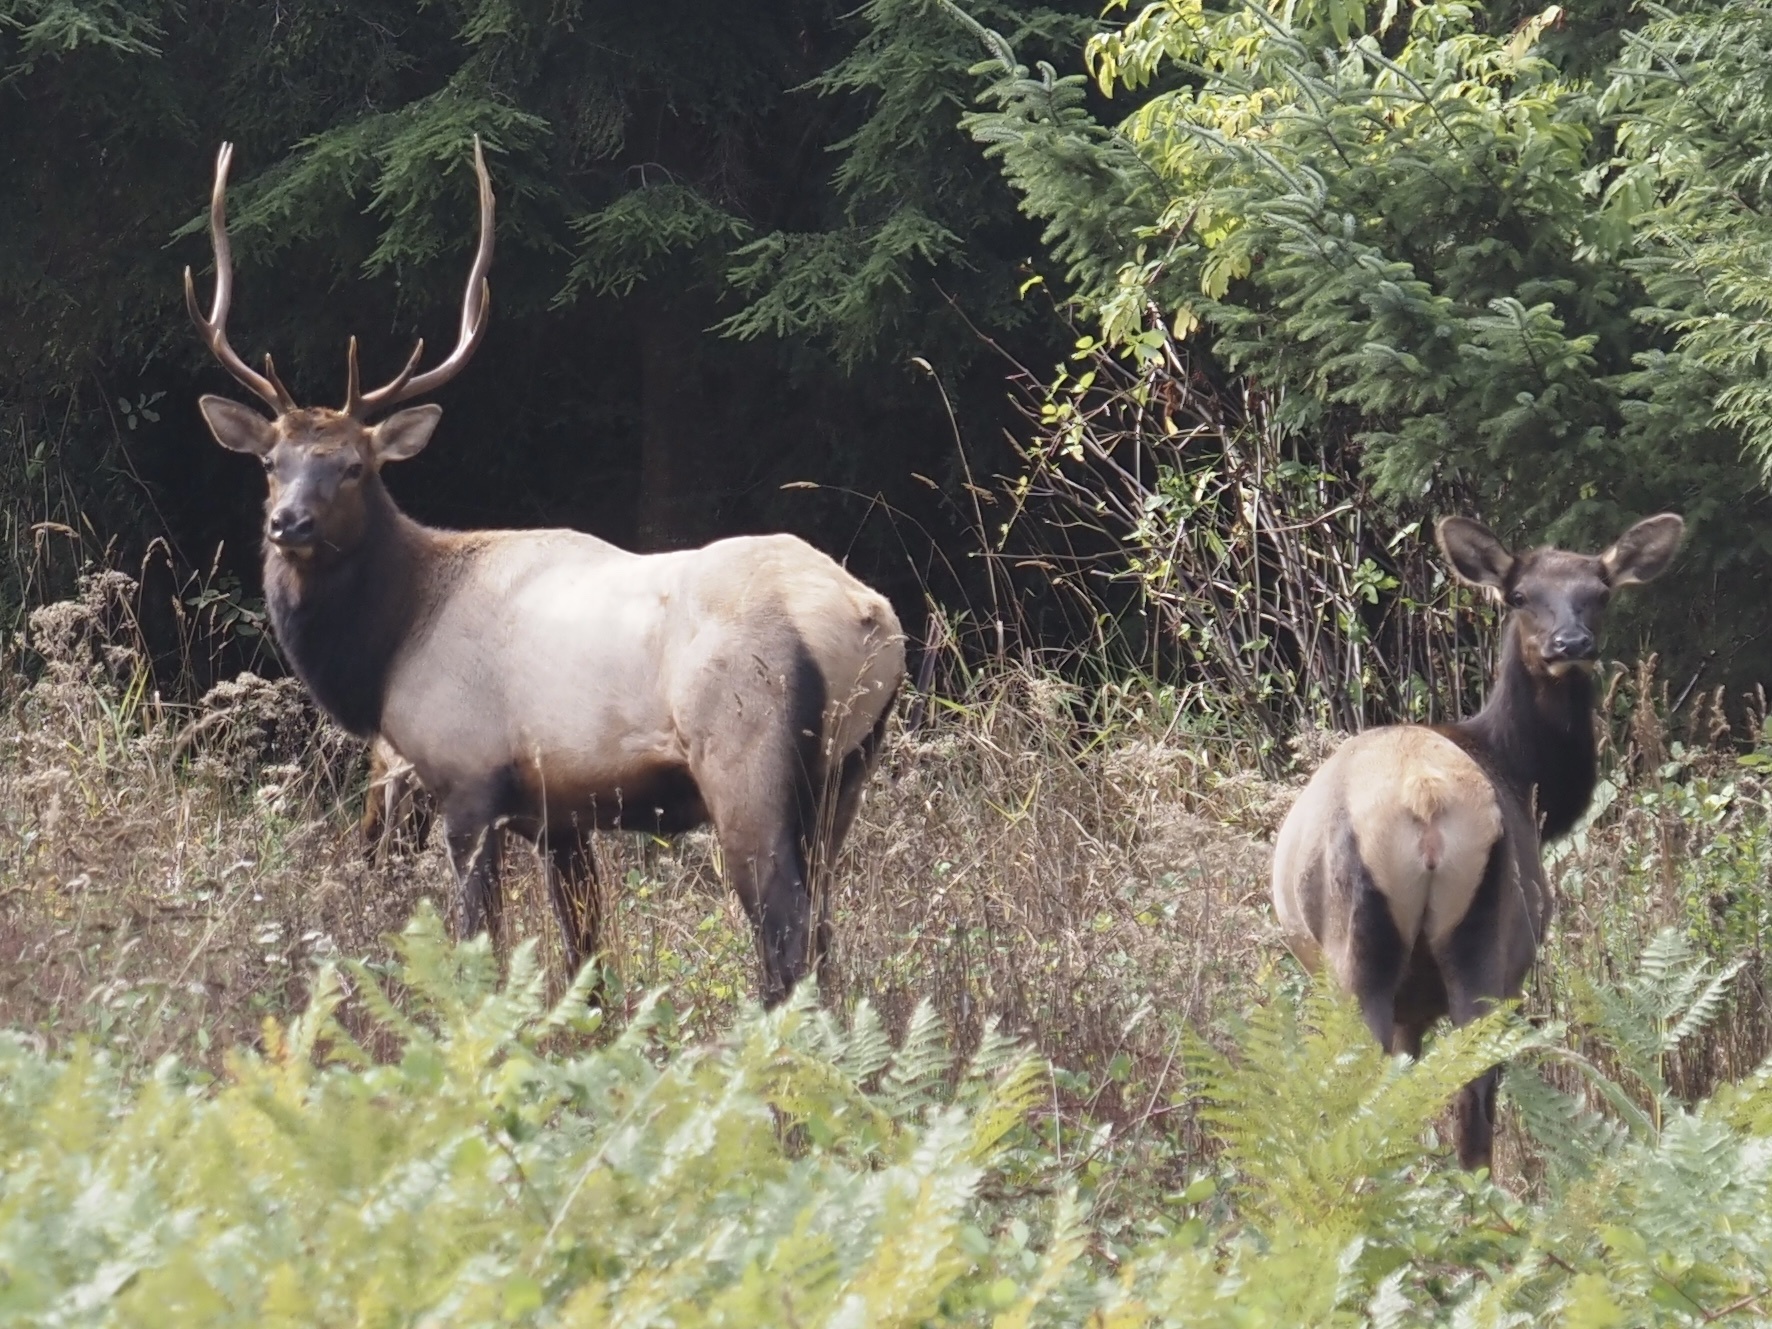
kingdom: Animalia
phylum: Chordata
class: Mammalia
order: Artiodactyla
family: Cervidae
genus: Cervus
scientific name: Cervus elaphus
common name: Red deer
